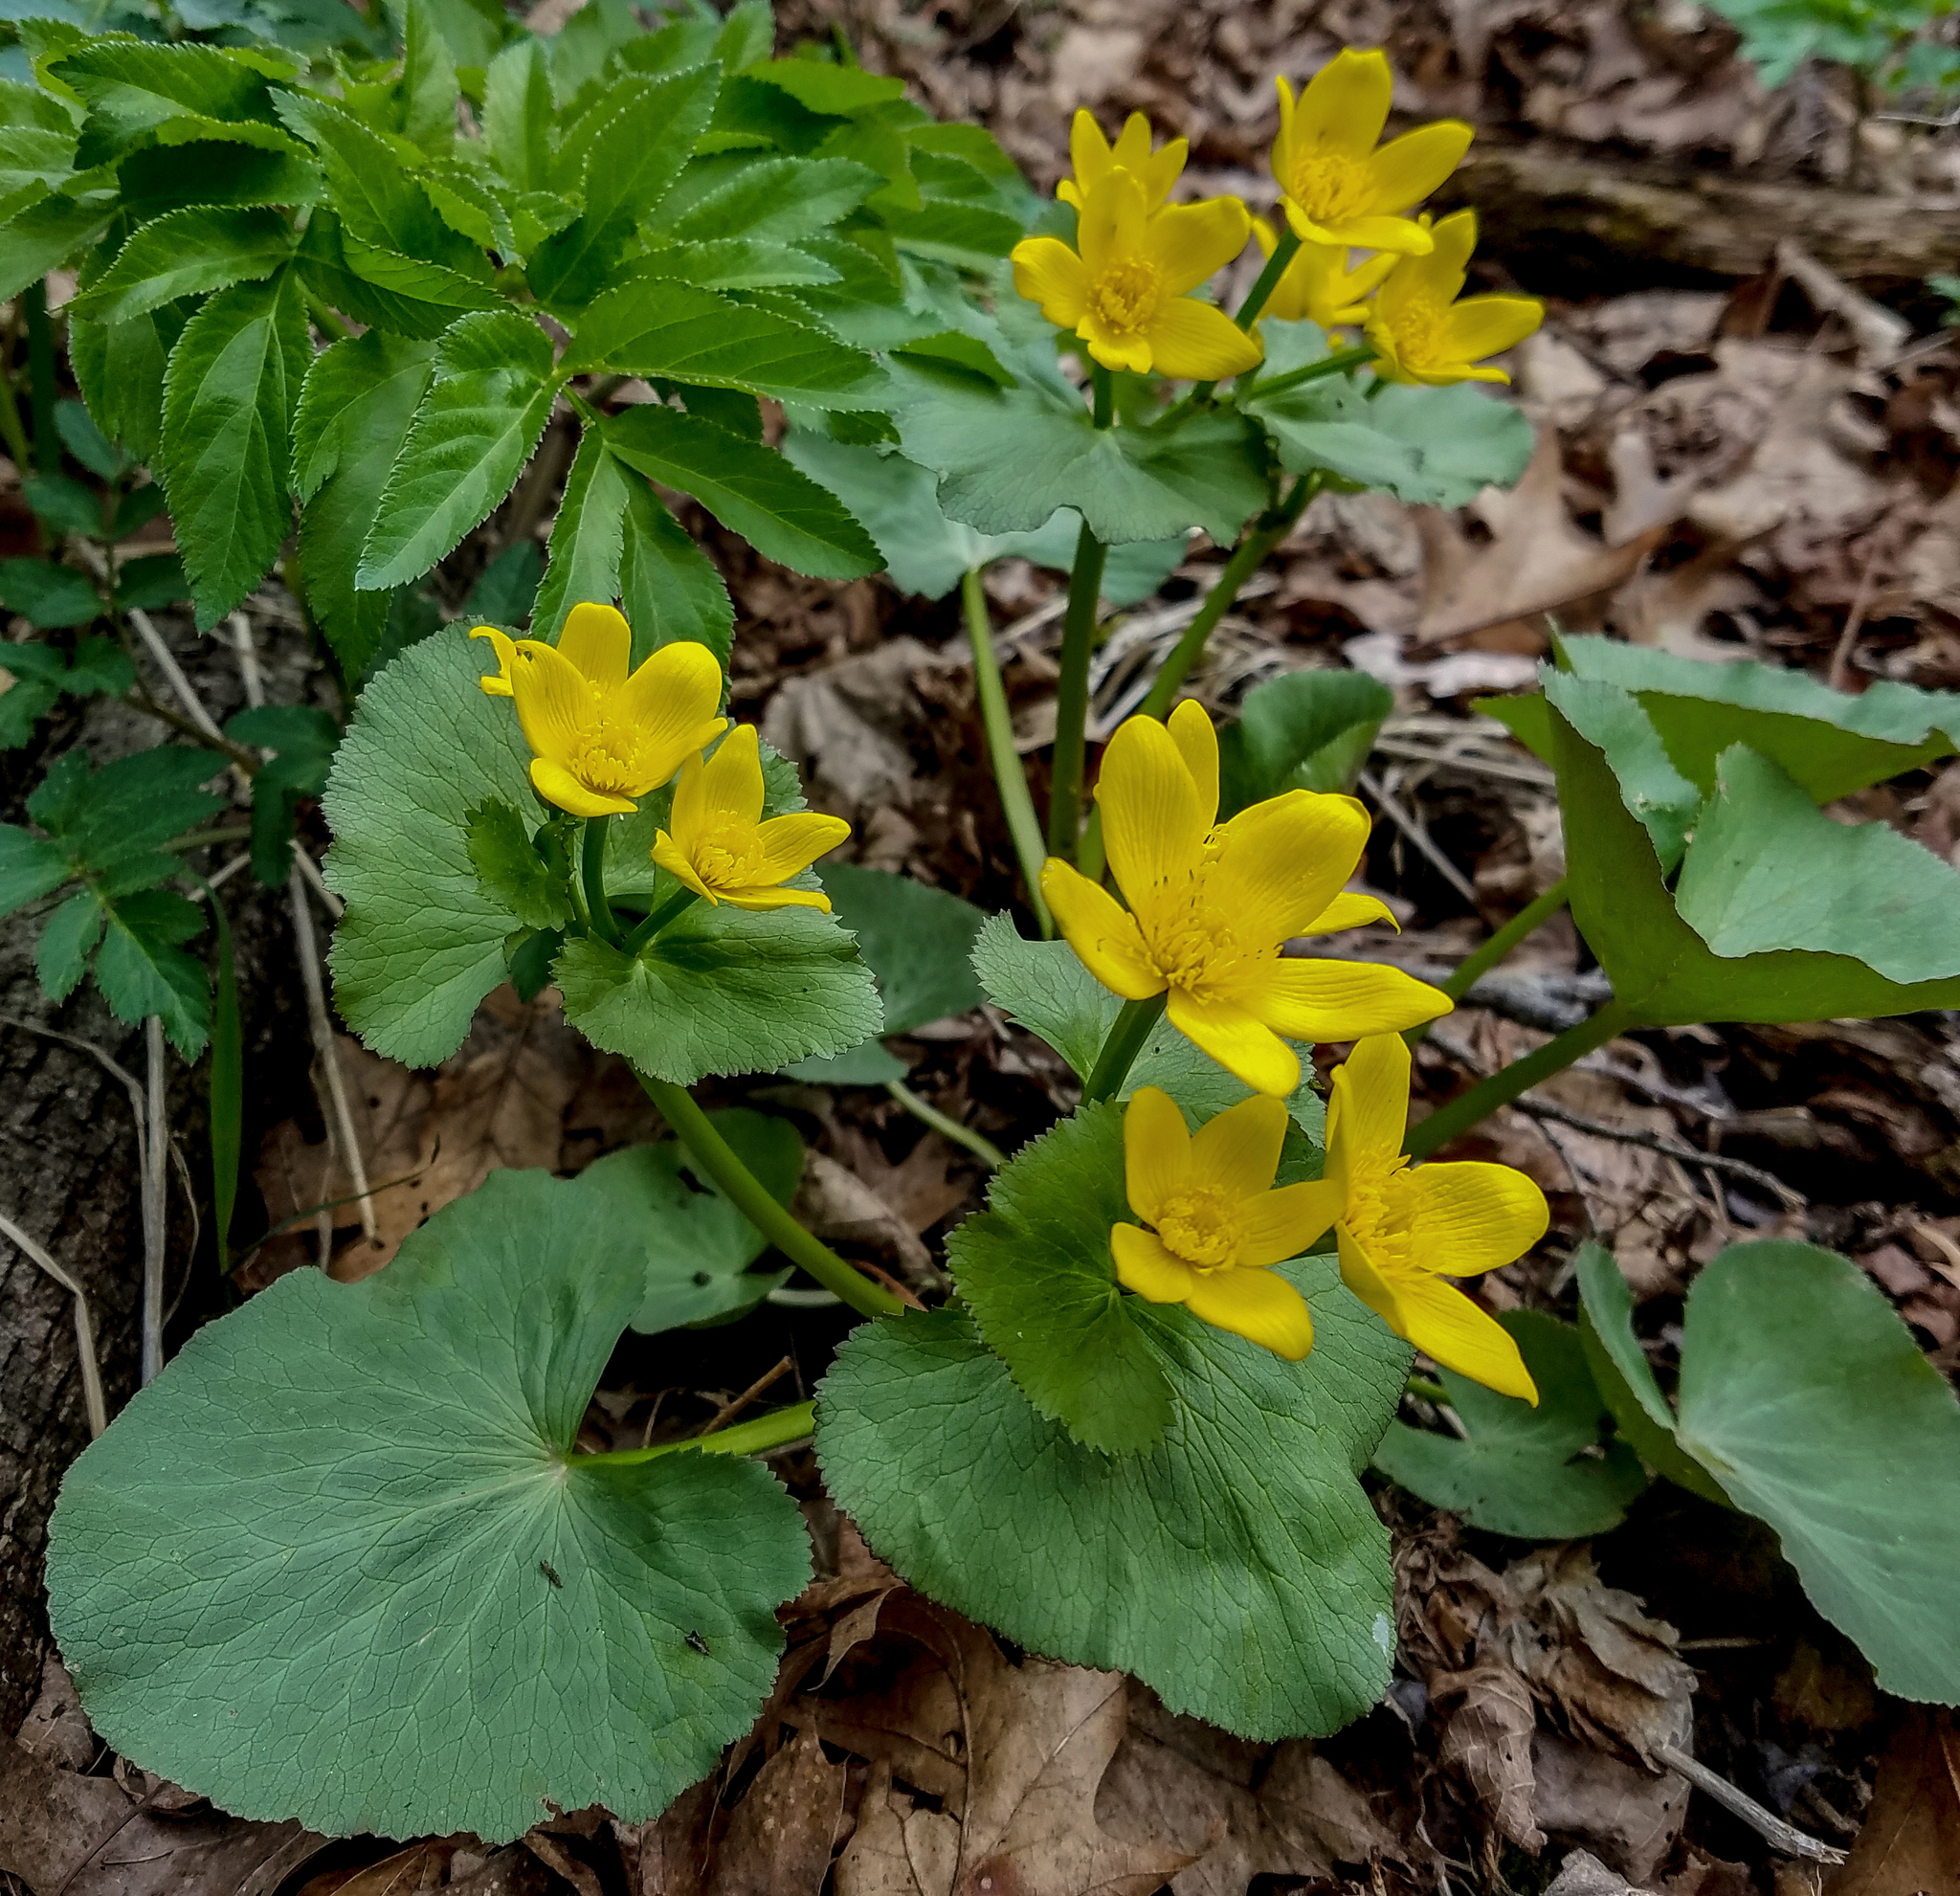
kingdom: Plantae
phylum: Tracheophyta
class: Magnoliopsida
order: Ranunculales
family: Ranunculaceae
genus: Caltha
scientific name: Caltha palustris
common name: Marsh marigold
